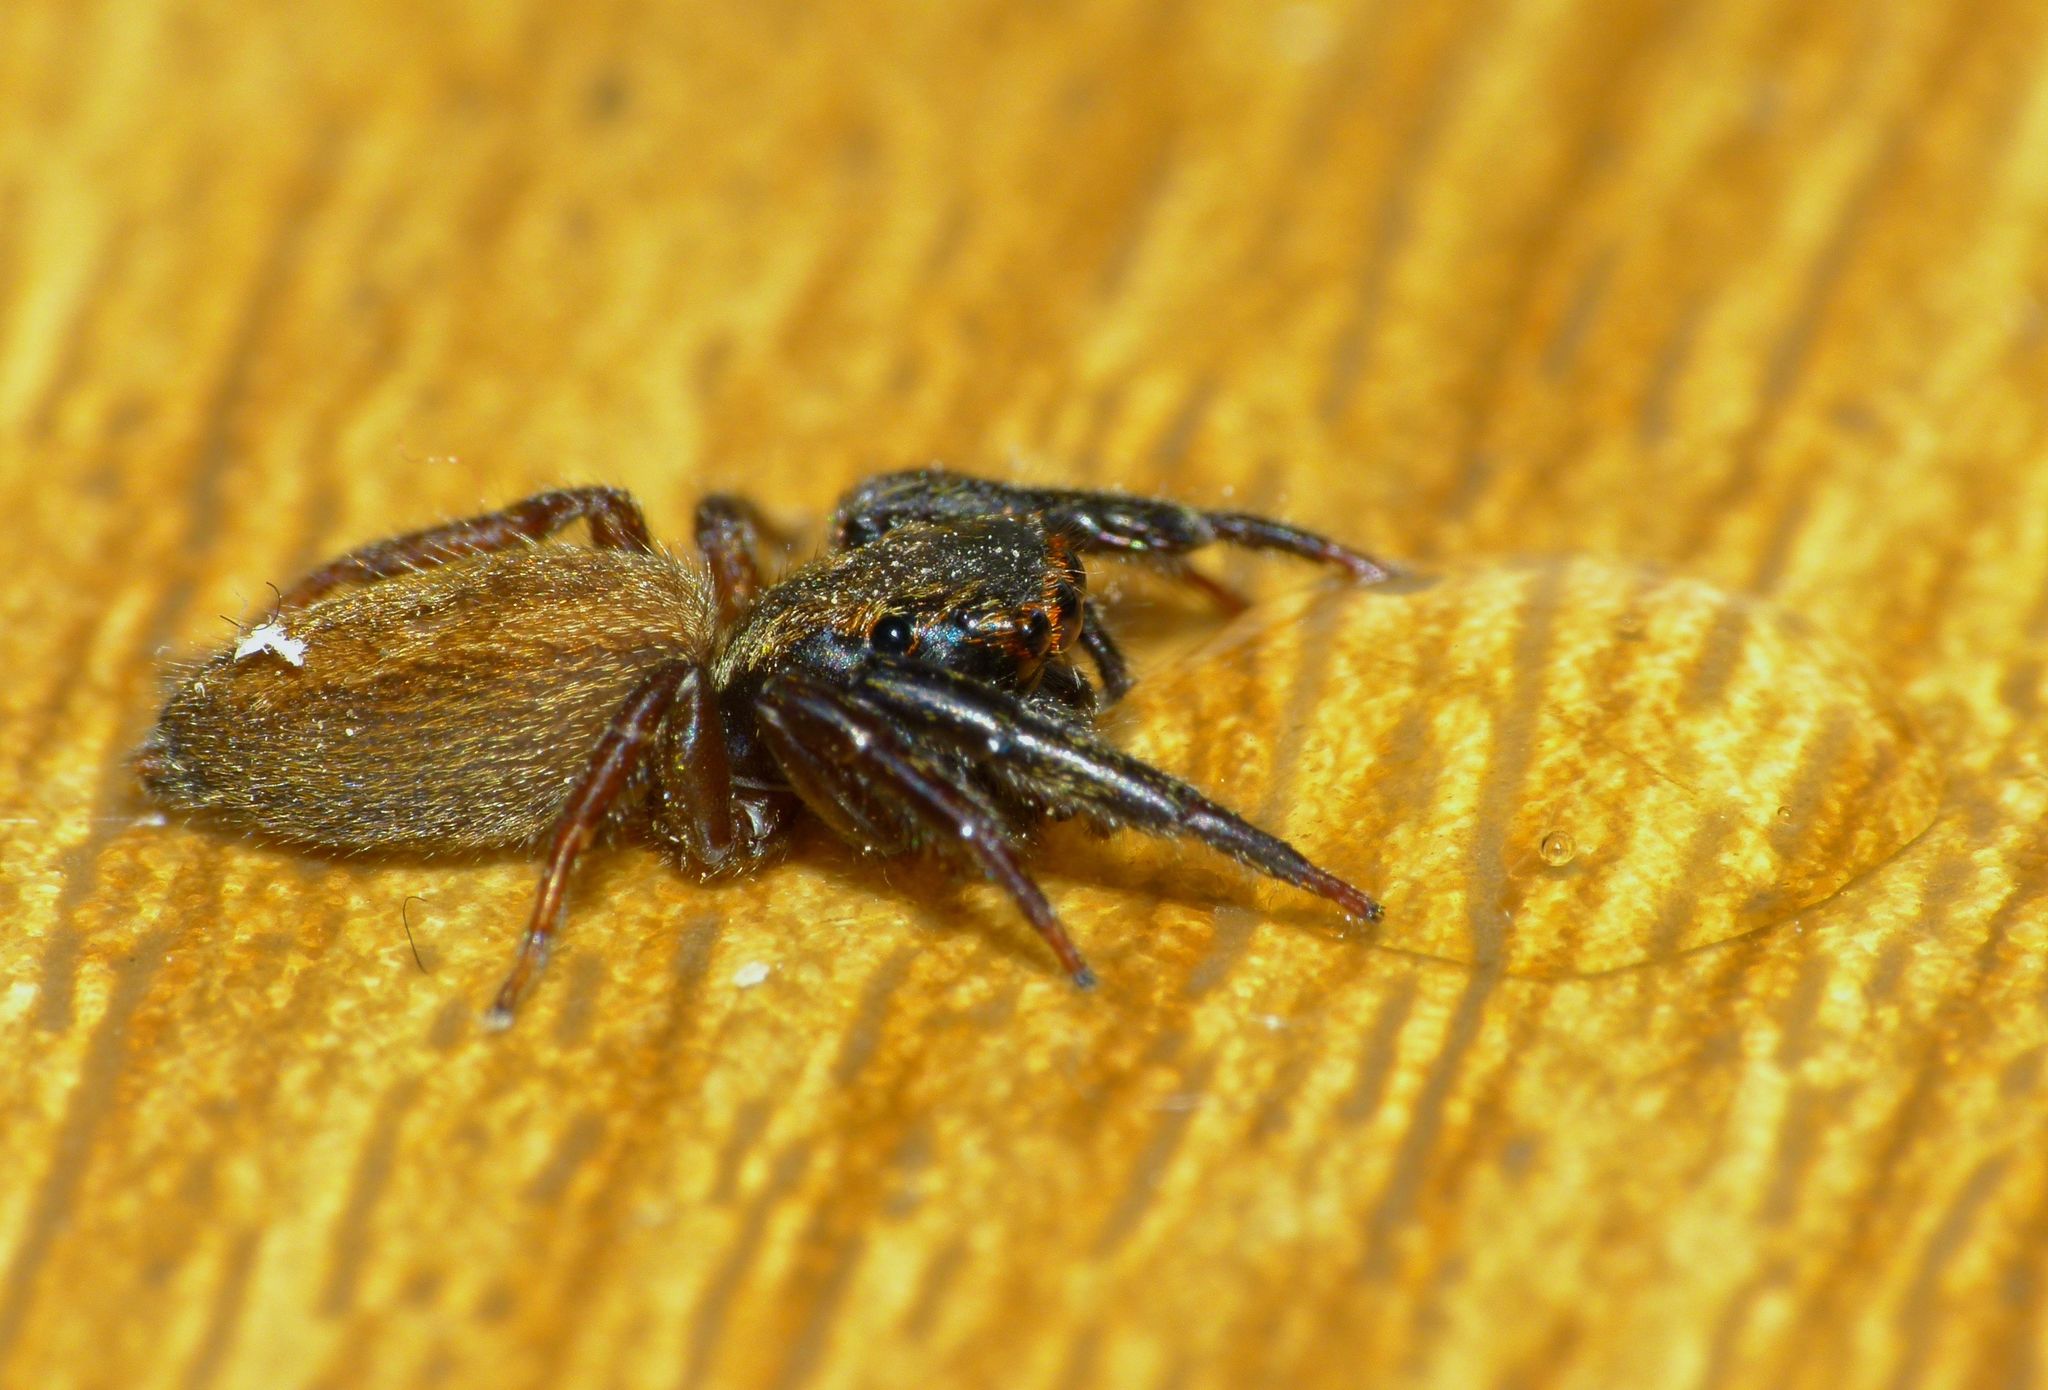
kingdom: Animalia
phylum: Arthropoda
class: Arachnida
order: Araneae
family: Salticidae
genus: Trite
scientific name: Trite auricoma
